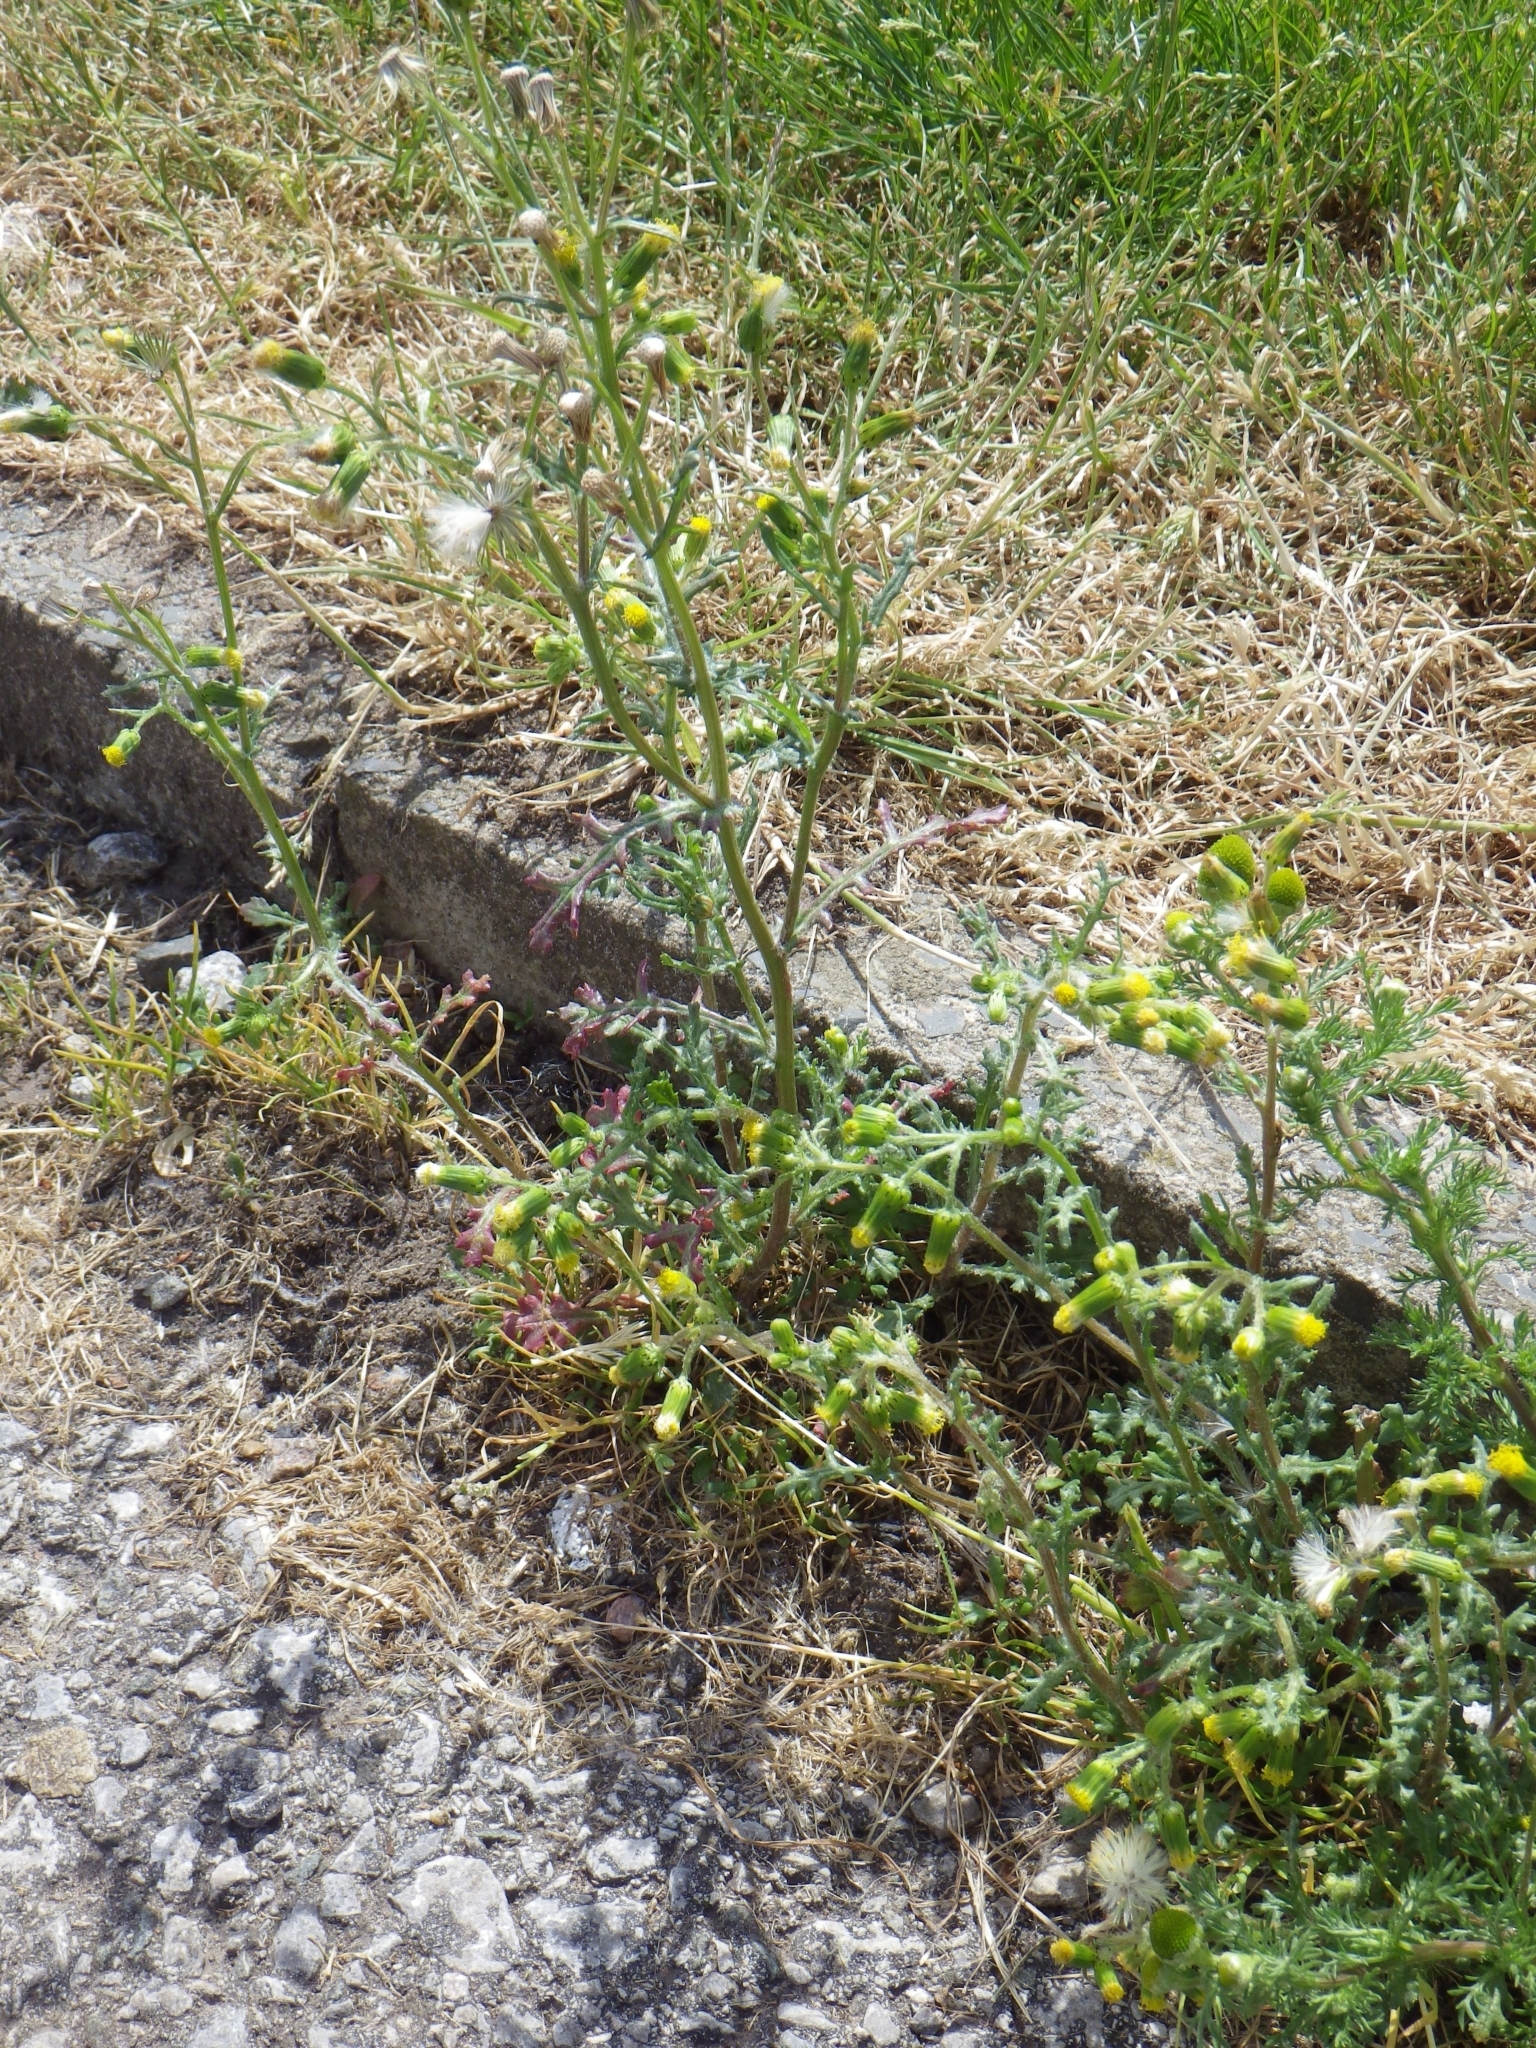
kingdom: Plantae
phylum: Tracheophyta
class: Magnoliopsida
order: Asterales
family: Asteraceae
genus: Senecio
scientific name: Senecio vulgaris
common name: Old-man-in-the-spring
